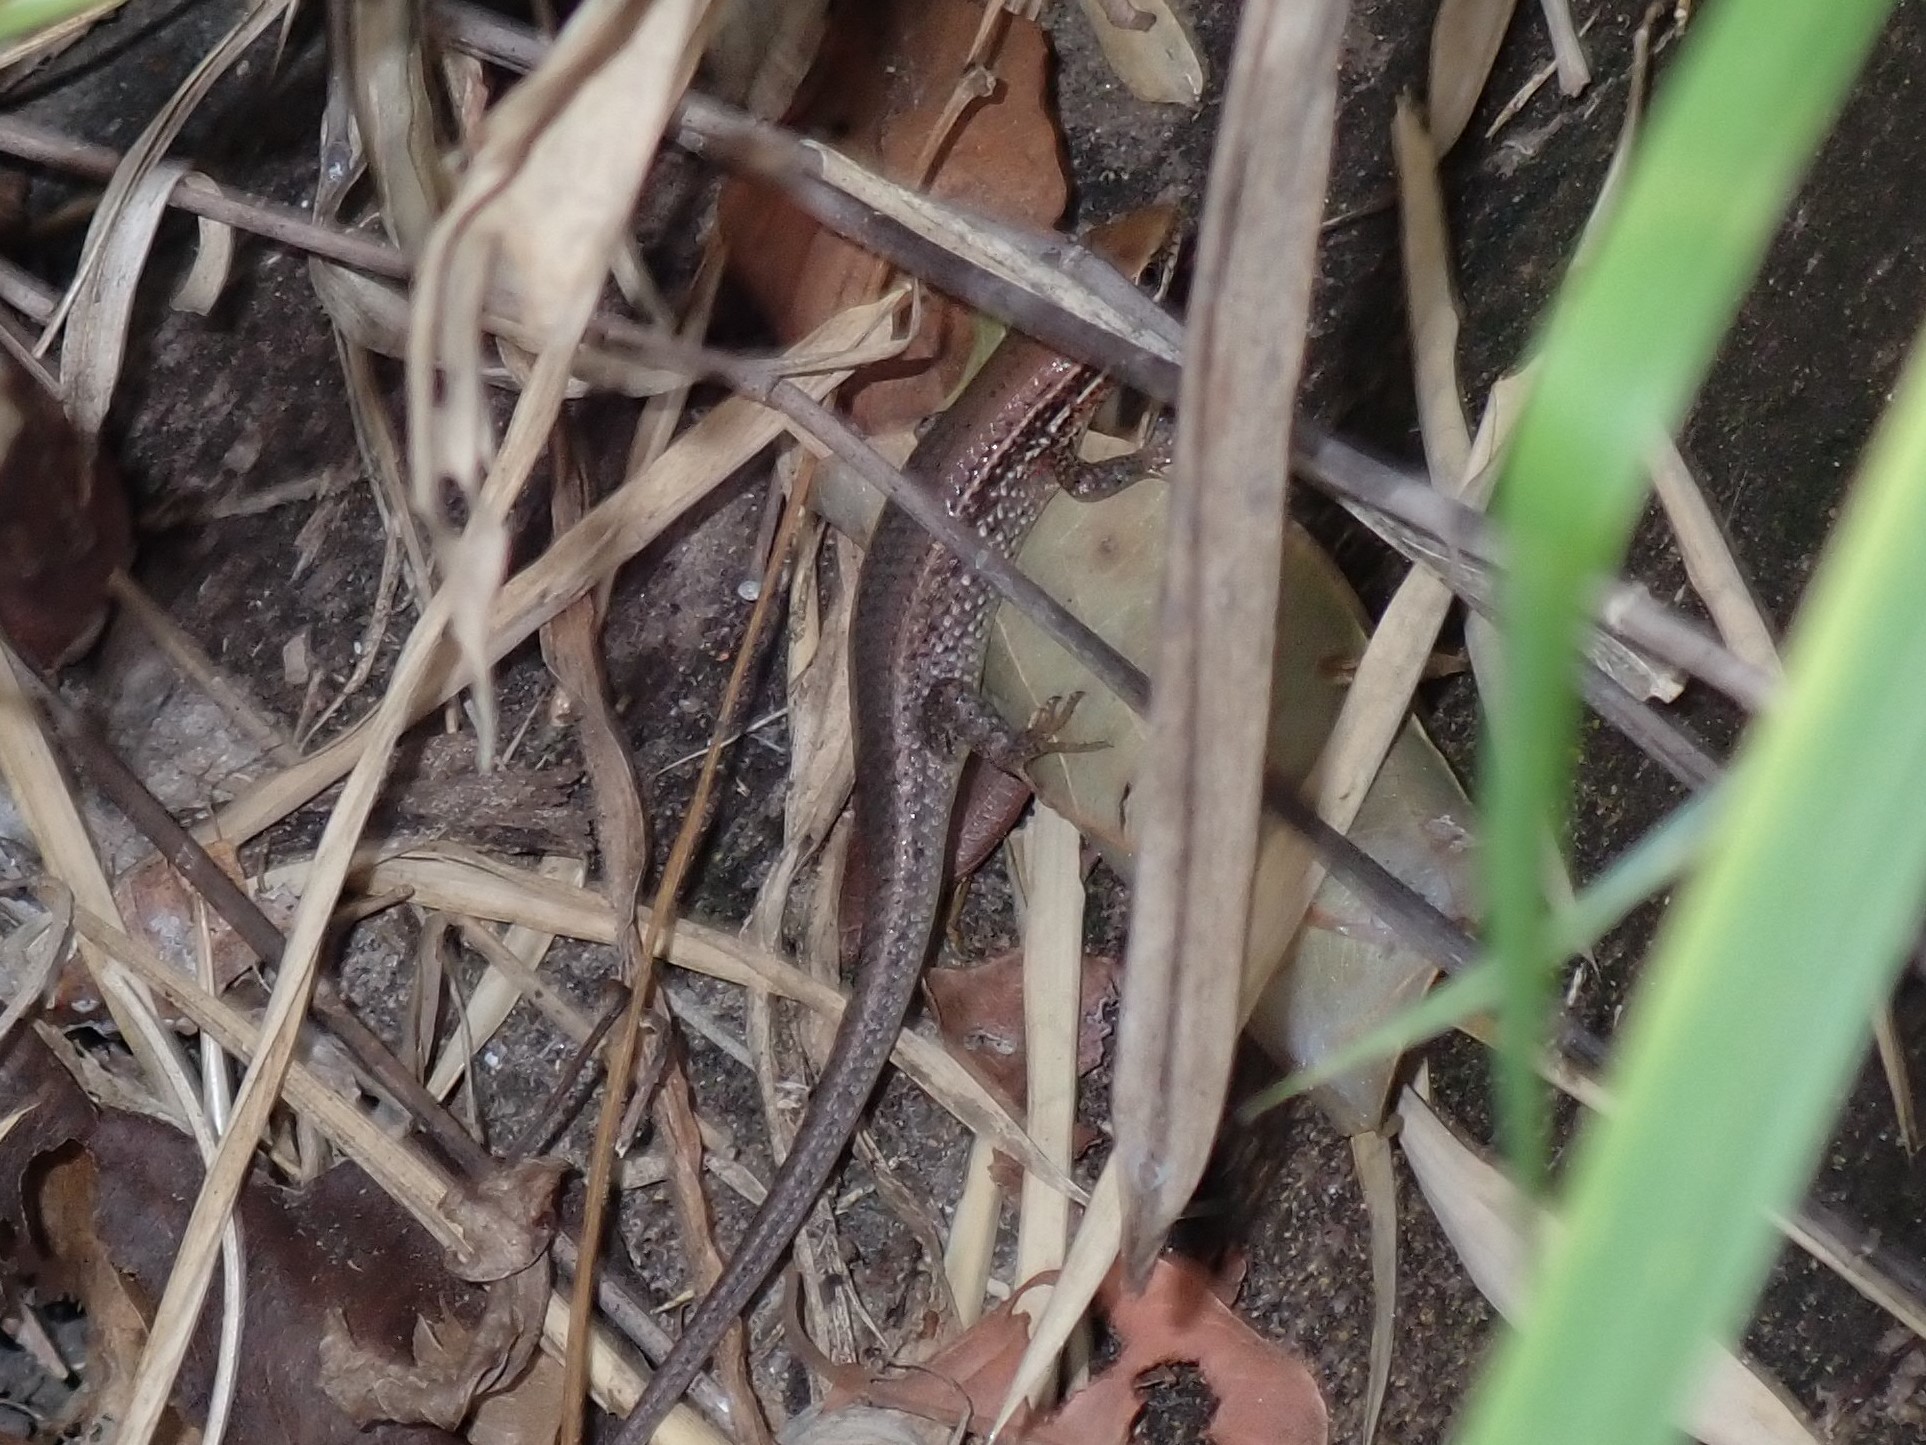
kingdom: Animalia
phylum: Chordata
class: Squamata
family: Scincidae
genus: Eutropis
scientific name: Eutropis macularia
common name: Bronze mabuya
